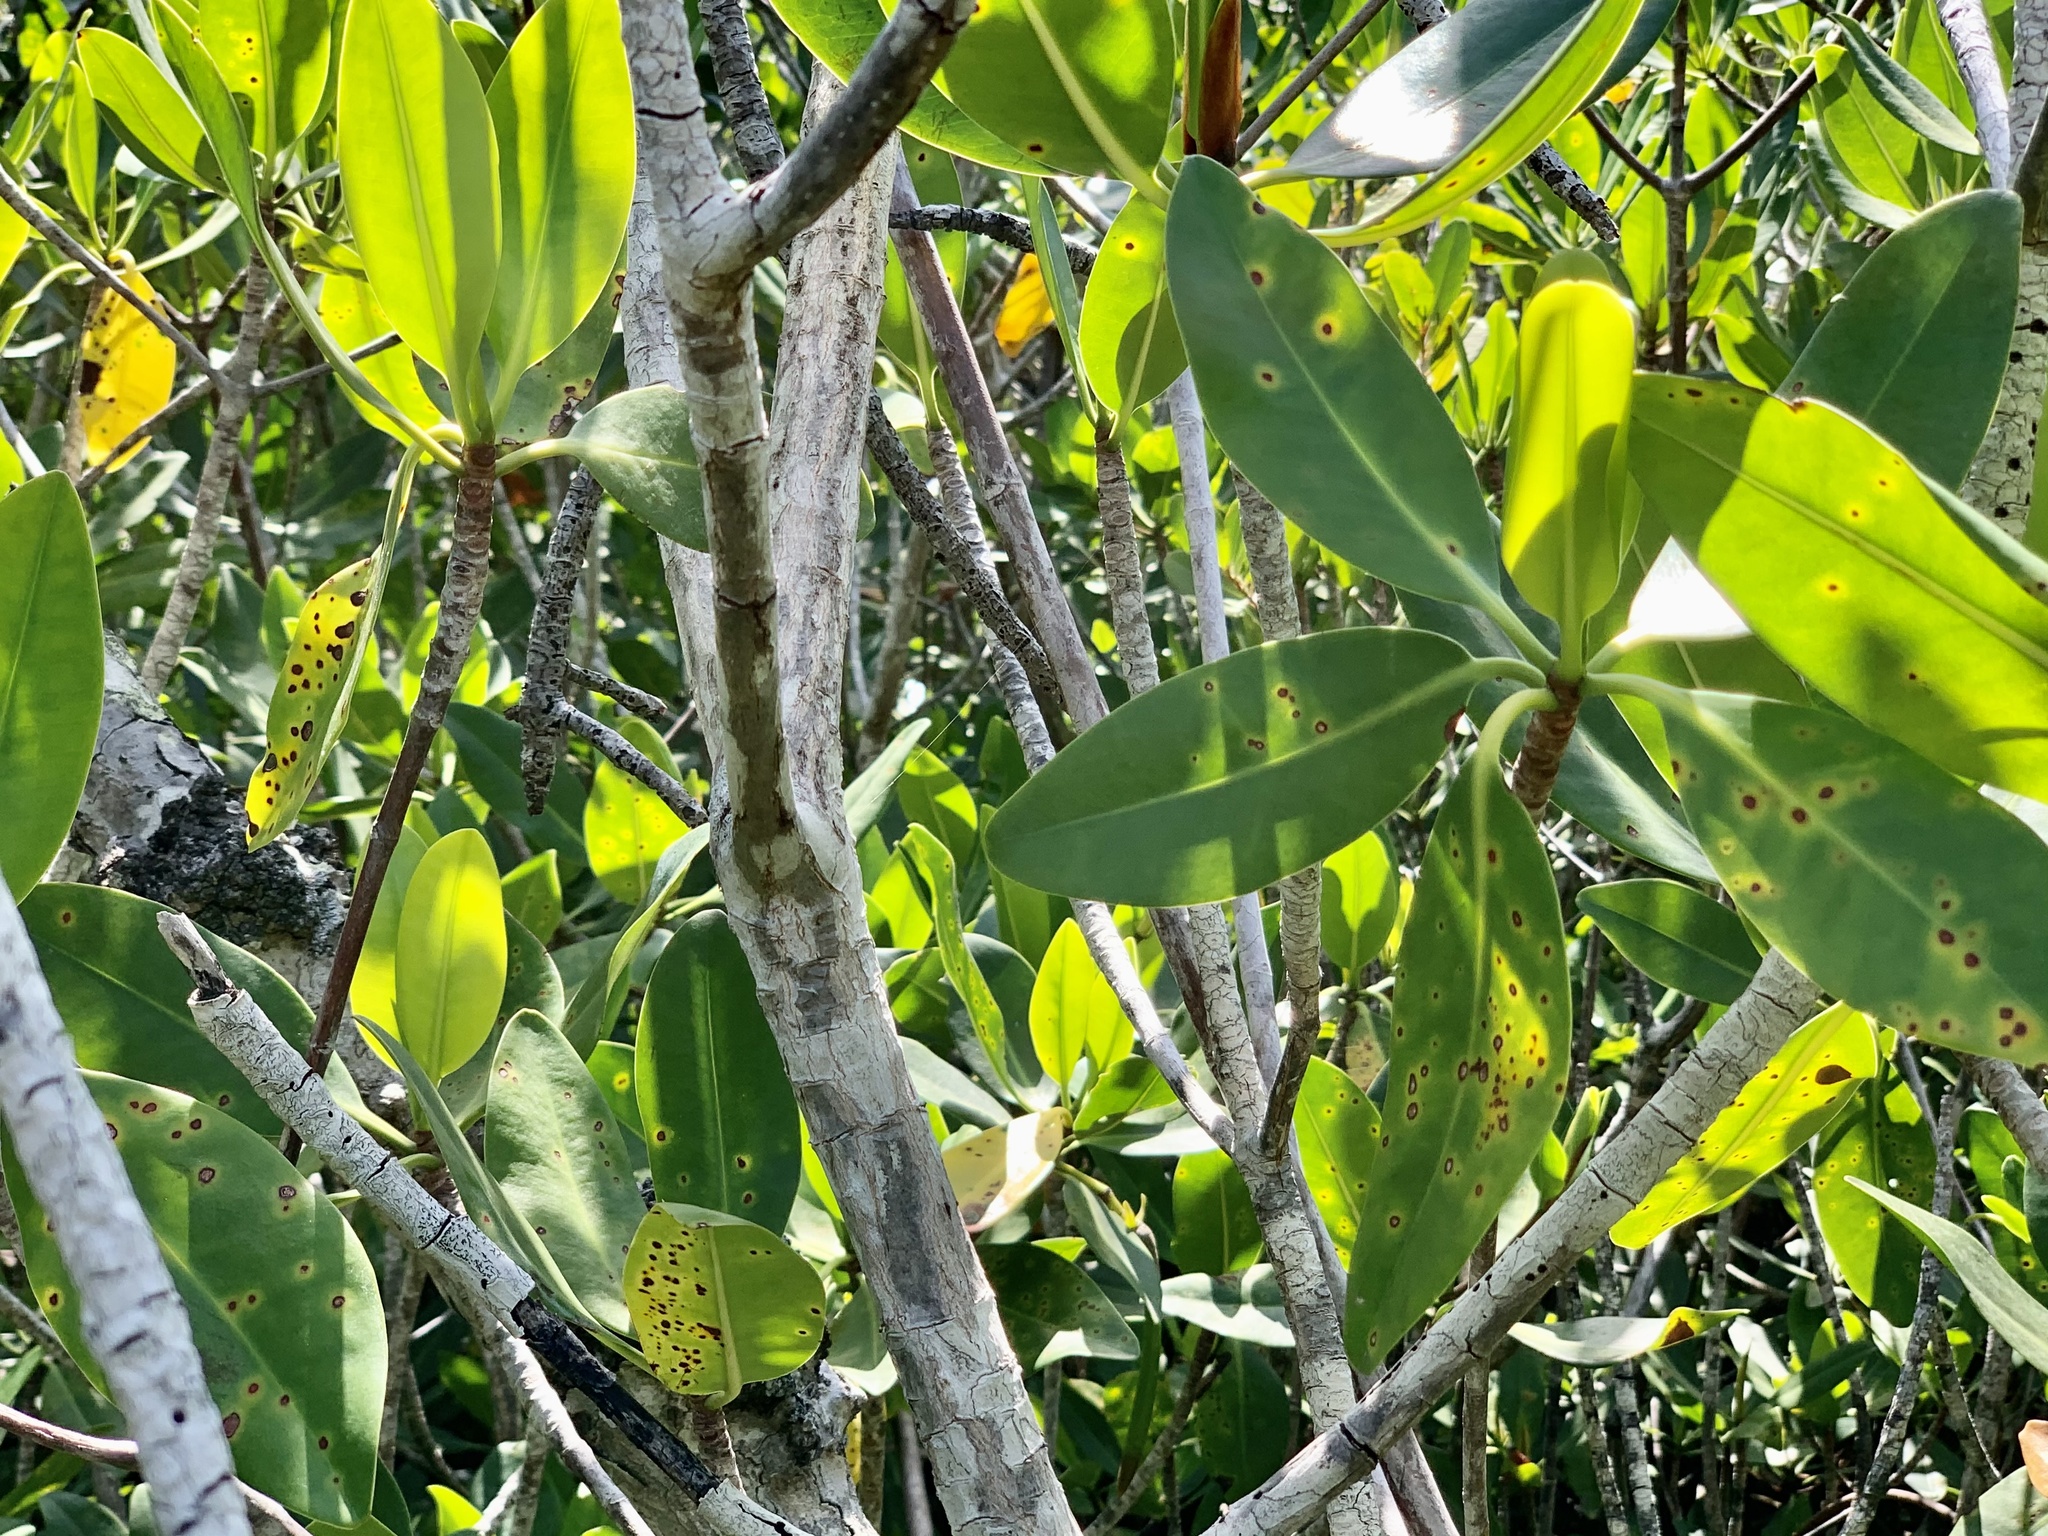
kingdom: Plantae
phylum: Tracheophyta
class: Magnoliopsida
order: Malpighiales
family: Rhizophoraceae
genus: Rhizophora
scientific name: Rhizophora mangle
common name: Red mangrove
